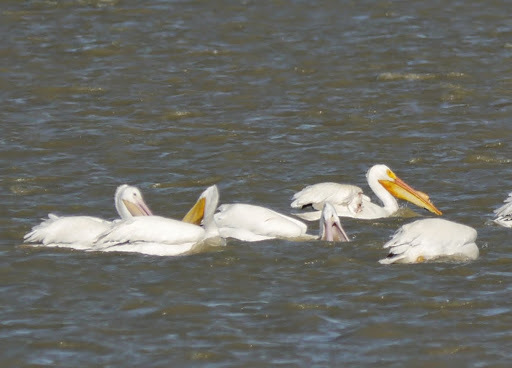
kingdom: Animalia
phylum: Chordata
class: Aves
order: Pelecaniformes
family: Pelecanidae
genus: Pelecanus
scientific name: Pelecanus erythrorhynchos
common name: American white pelican
